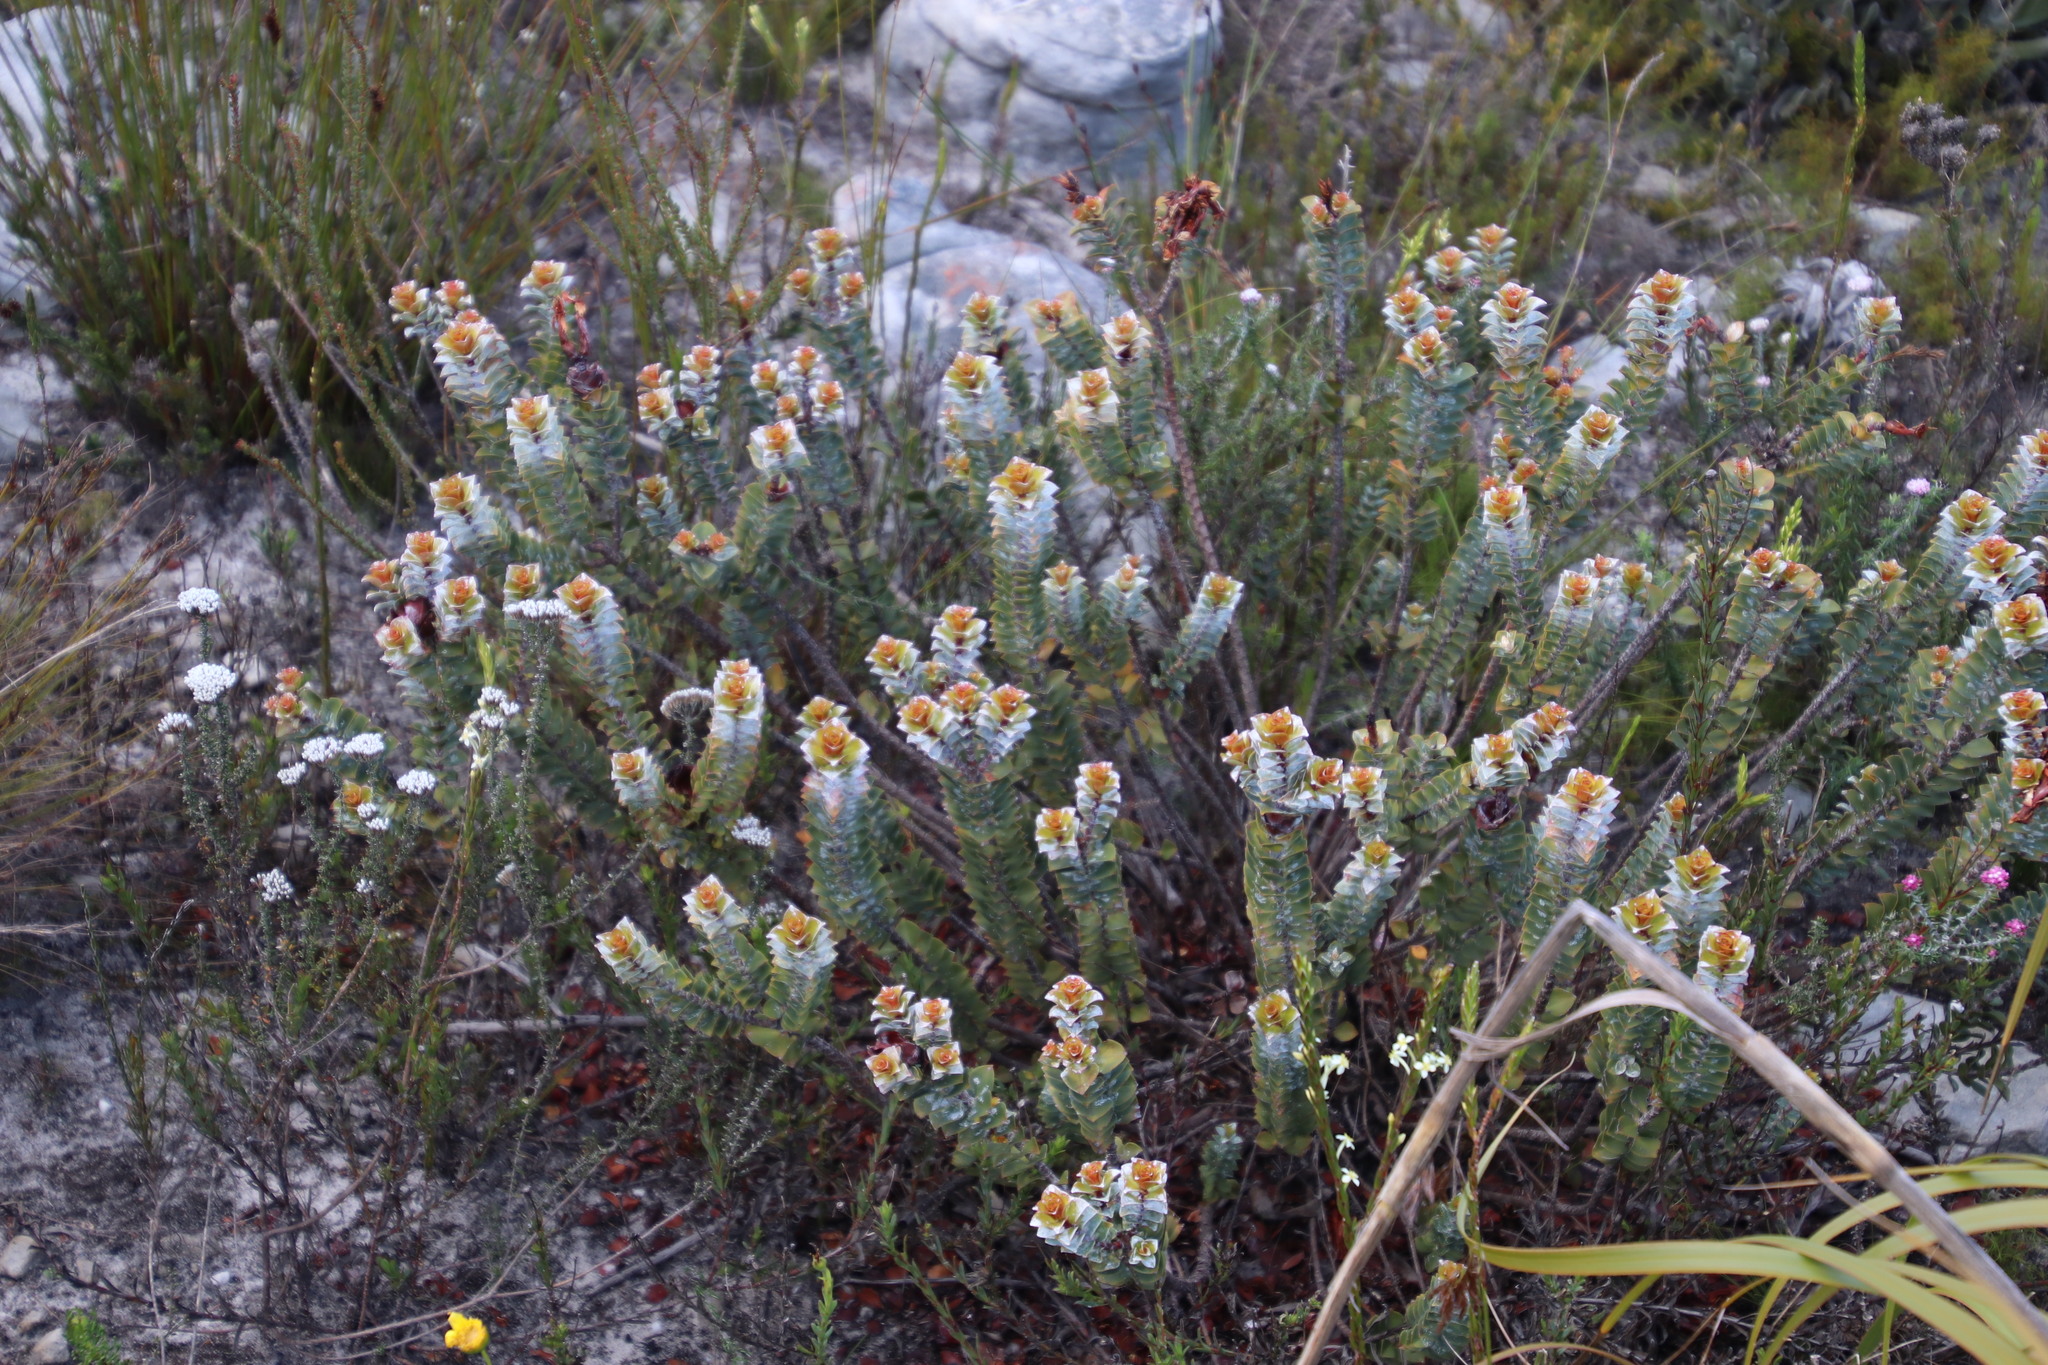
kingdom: Plantae
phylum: Tracheophyta
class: Magnoliopsida
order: Myrtales
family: Penaeaceae
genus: Saltera
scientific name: Saltera sarcocolla
